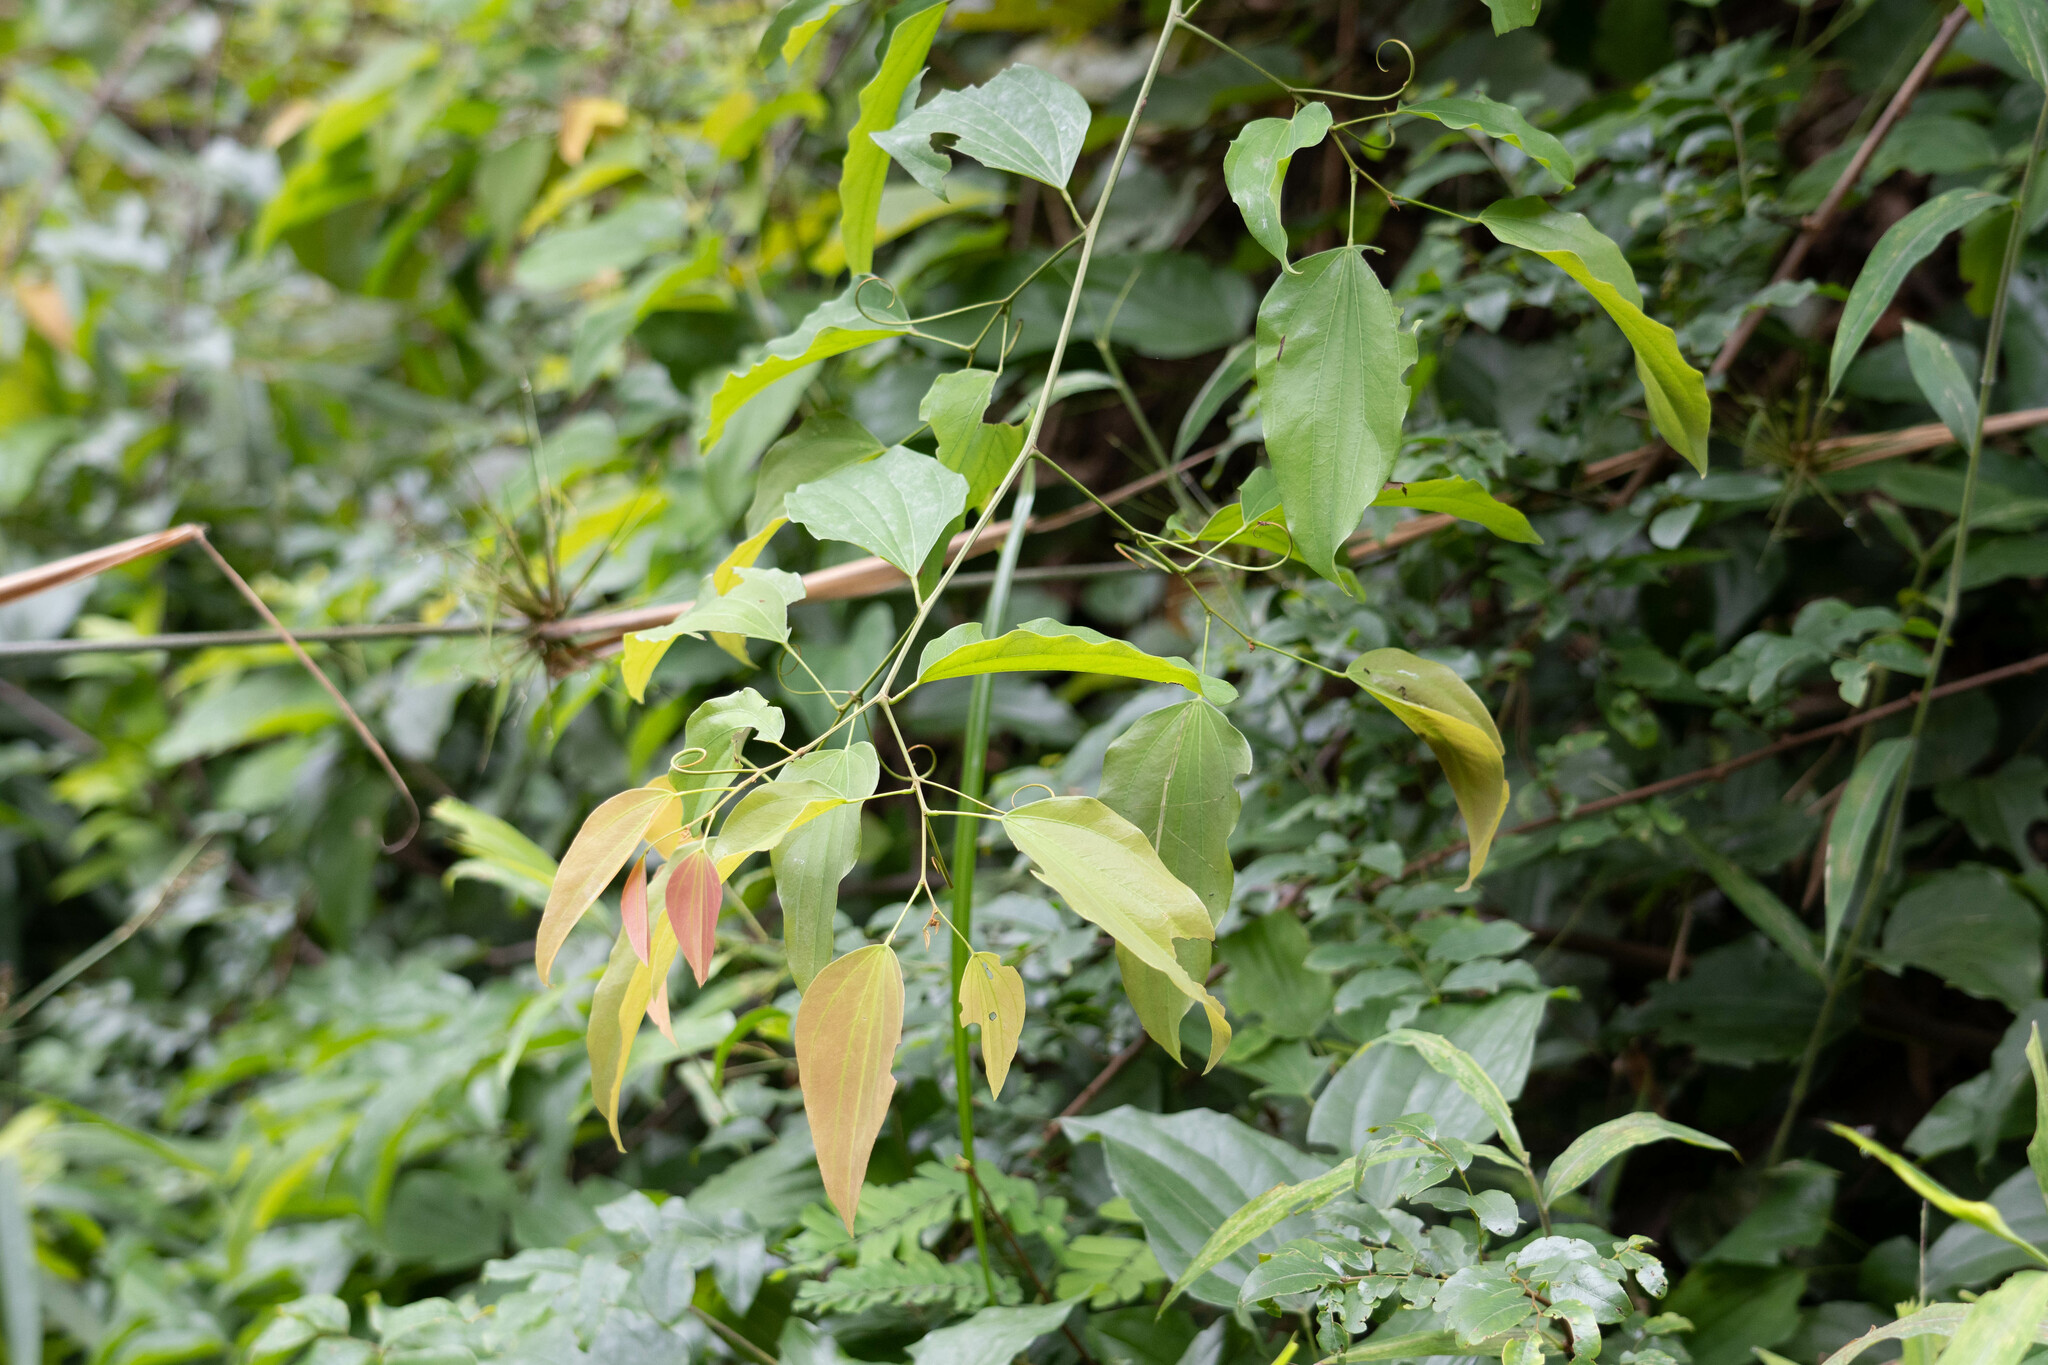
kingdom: Plantae
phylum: Tracheophyta
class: Magnoliopsida
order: Fabales
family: Fabaceae
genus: Phanera
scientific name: Phanera championii
